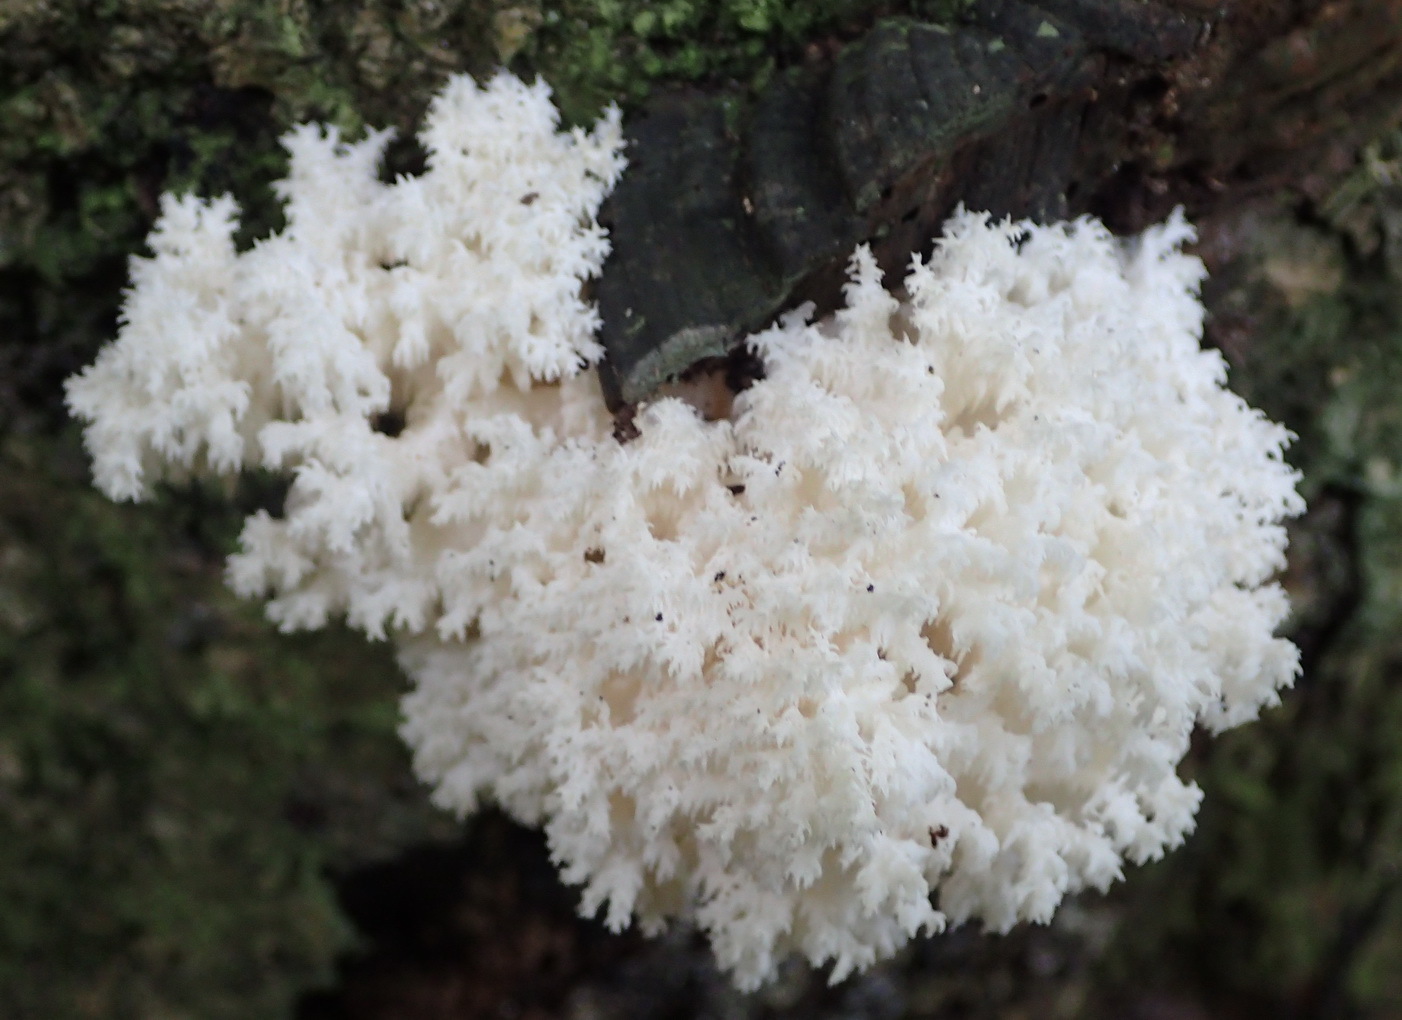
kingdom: Fungi
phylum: Basidiomycota
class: Agaricomycetes
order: Cantharellales
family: Hydnaceae
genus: Clavulina
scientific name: Clavulina coralloides
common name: Crested coral
